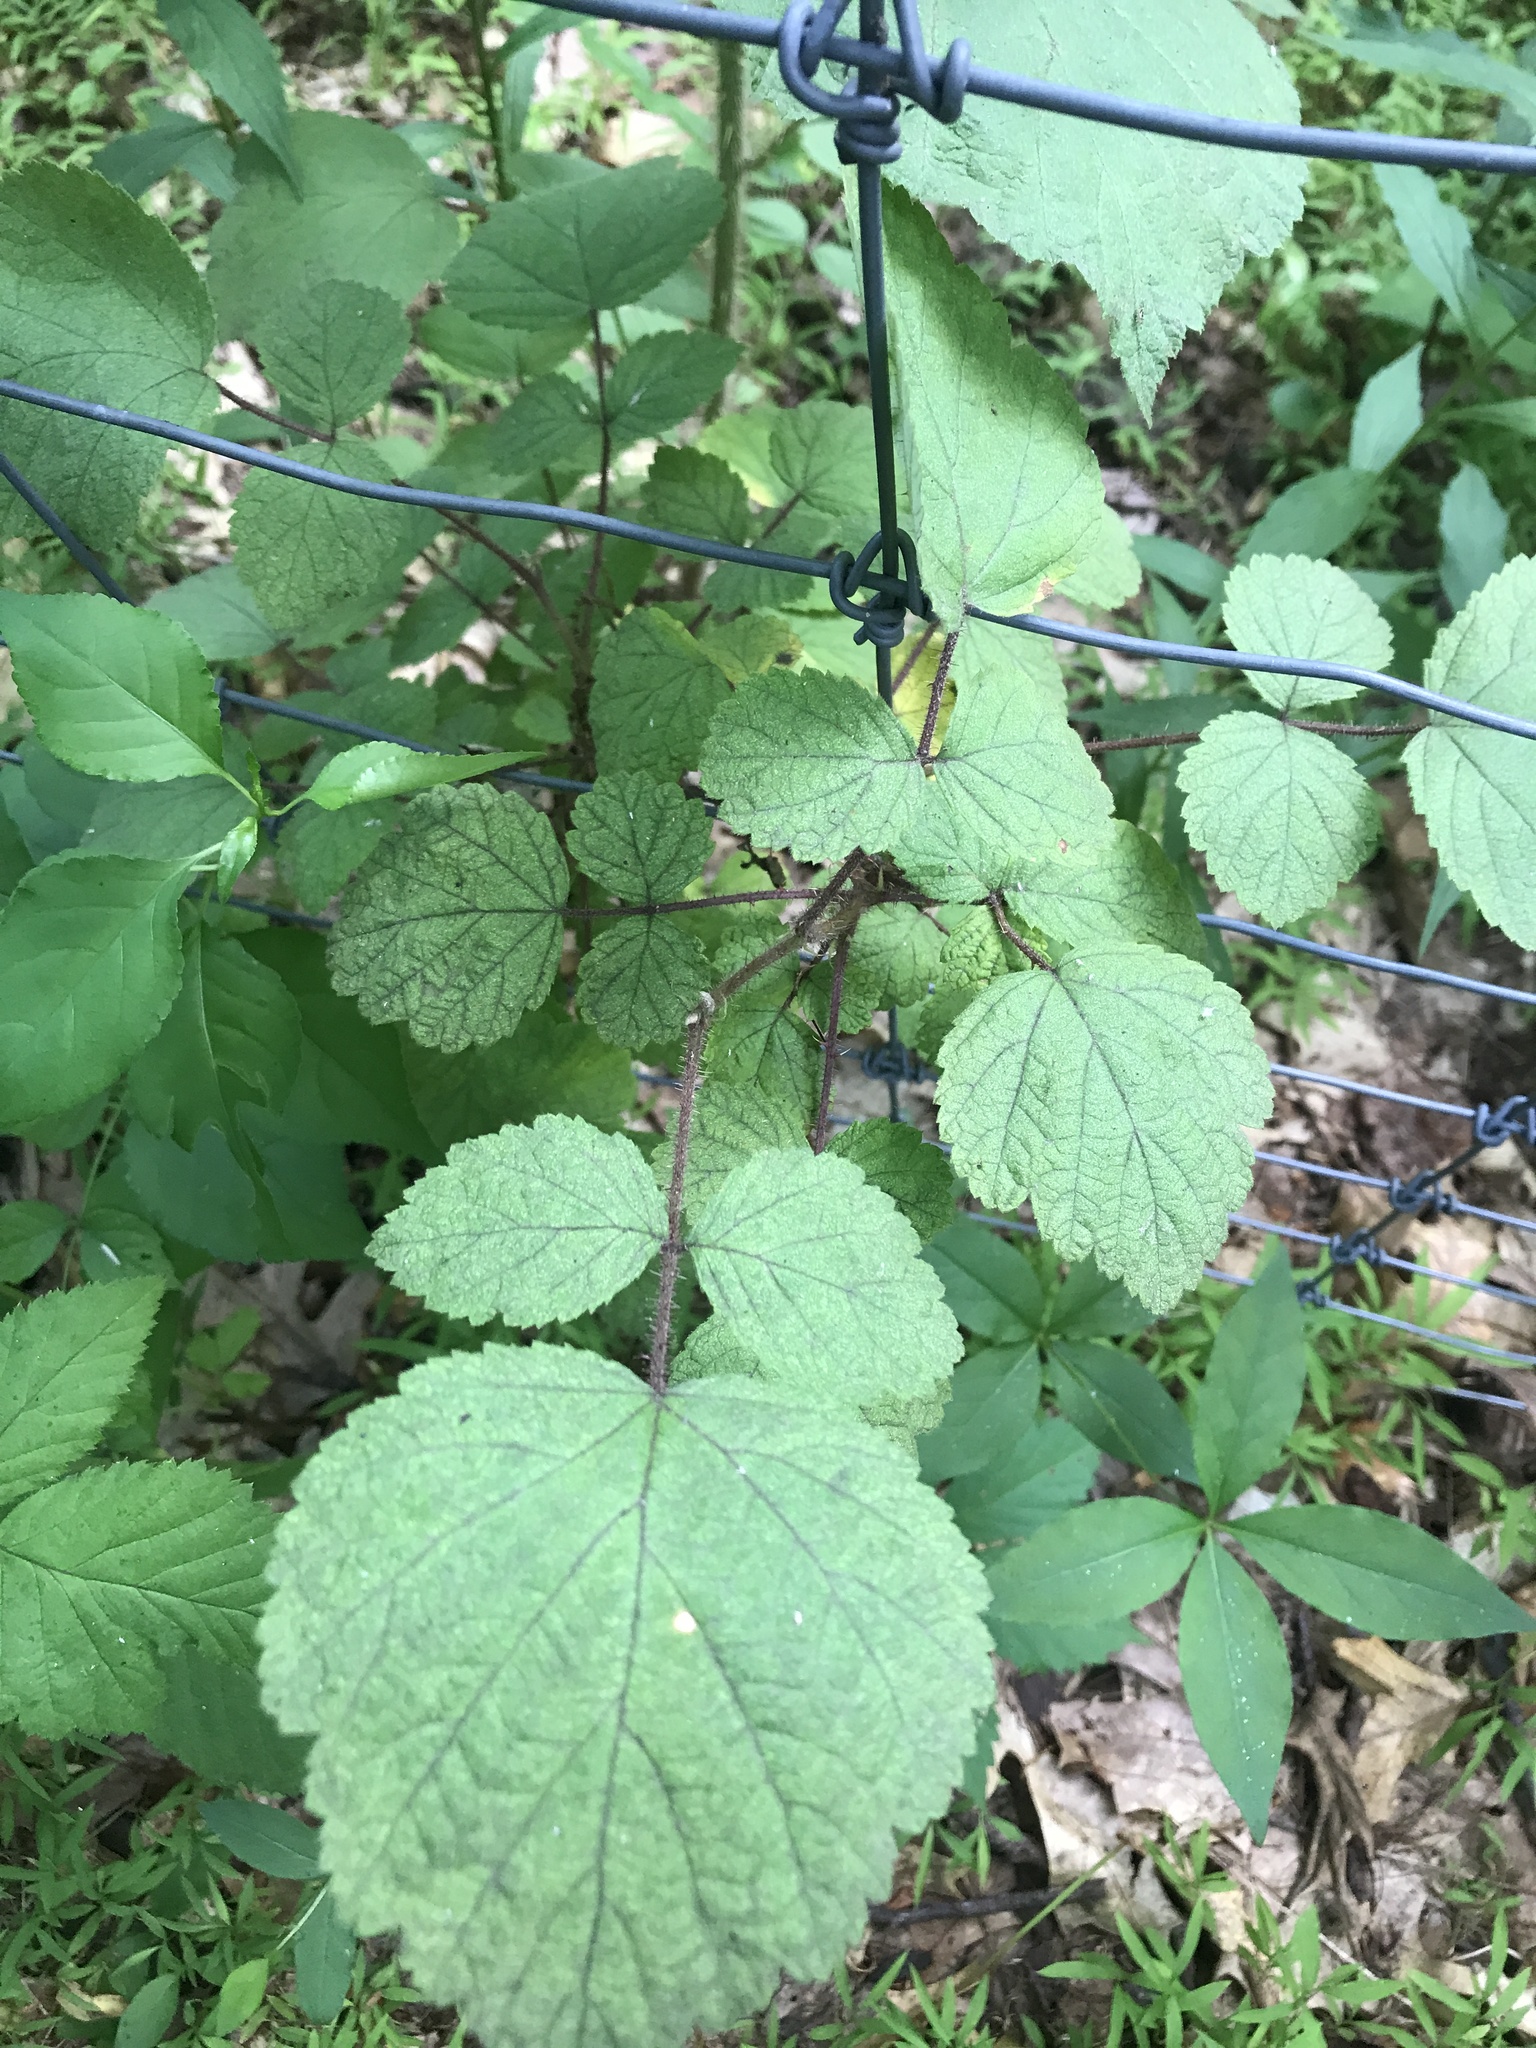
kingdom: Plantae
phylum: Tracheophyta
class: Magnoliopsida
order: Rosales
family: Rosaceae
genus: Rubus
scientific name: Rubus phoenicolasius
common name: Japanese wineberry
